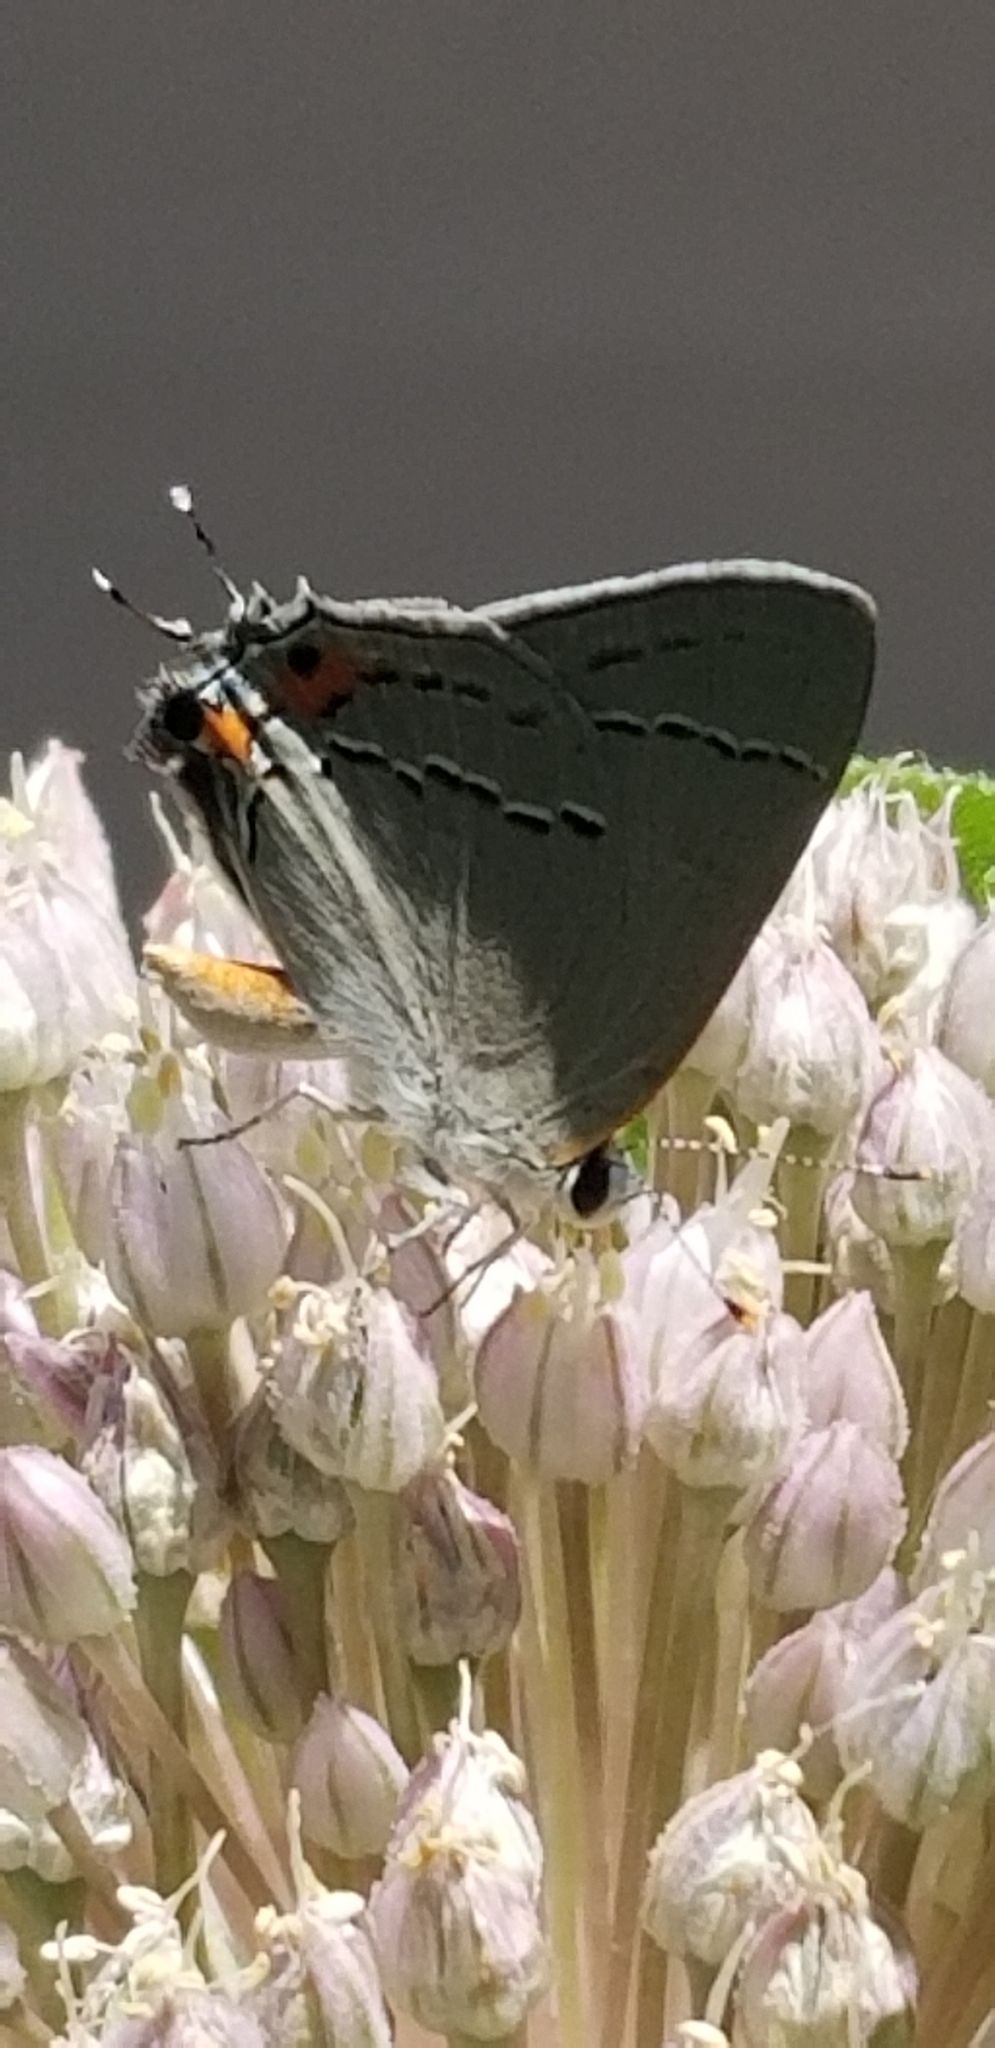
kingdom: Animalia
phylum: Arthropoda
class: Insecta
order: Lepidoptera
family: Lycaenidae
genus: Strymon
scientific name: Strymon melinus
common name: Gray hairstreak
